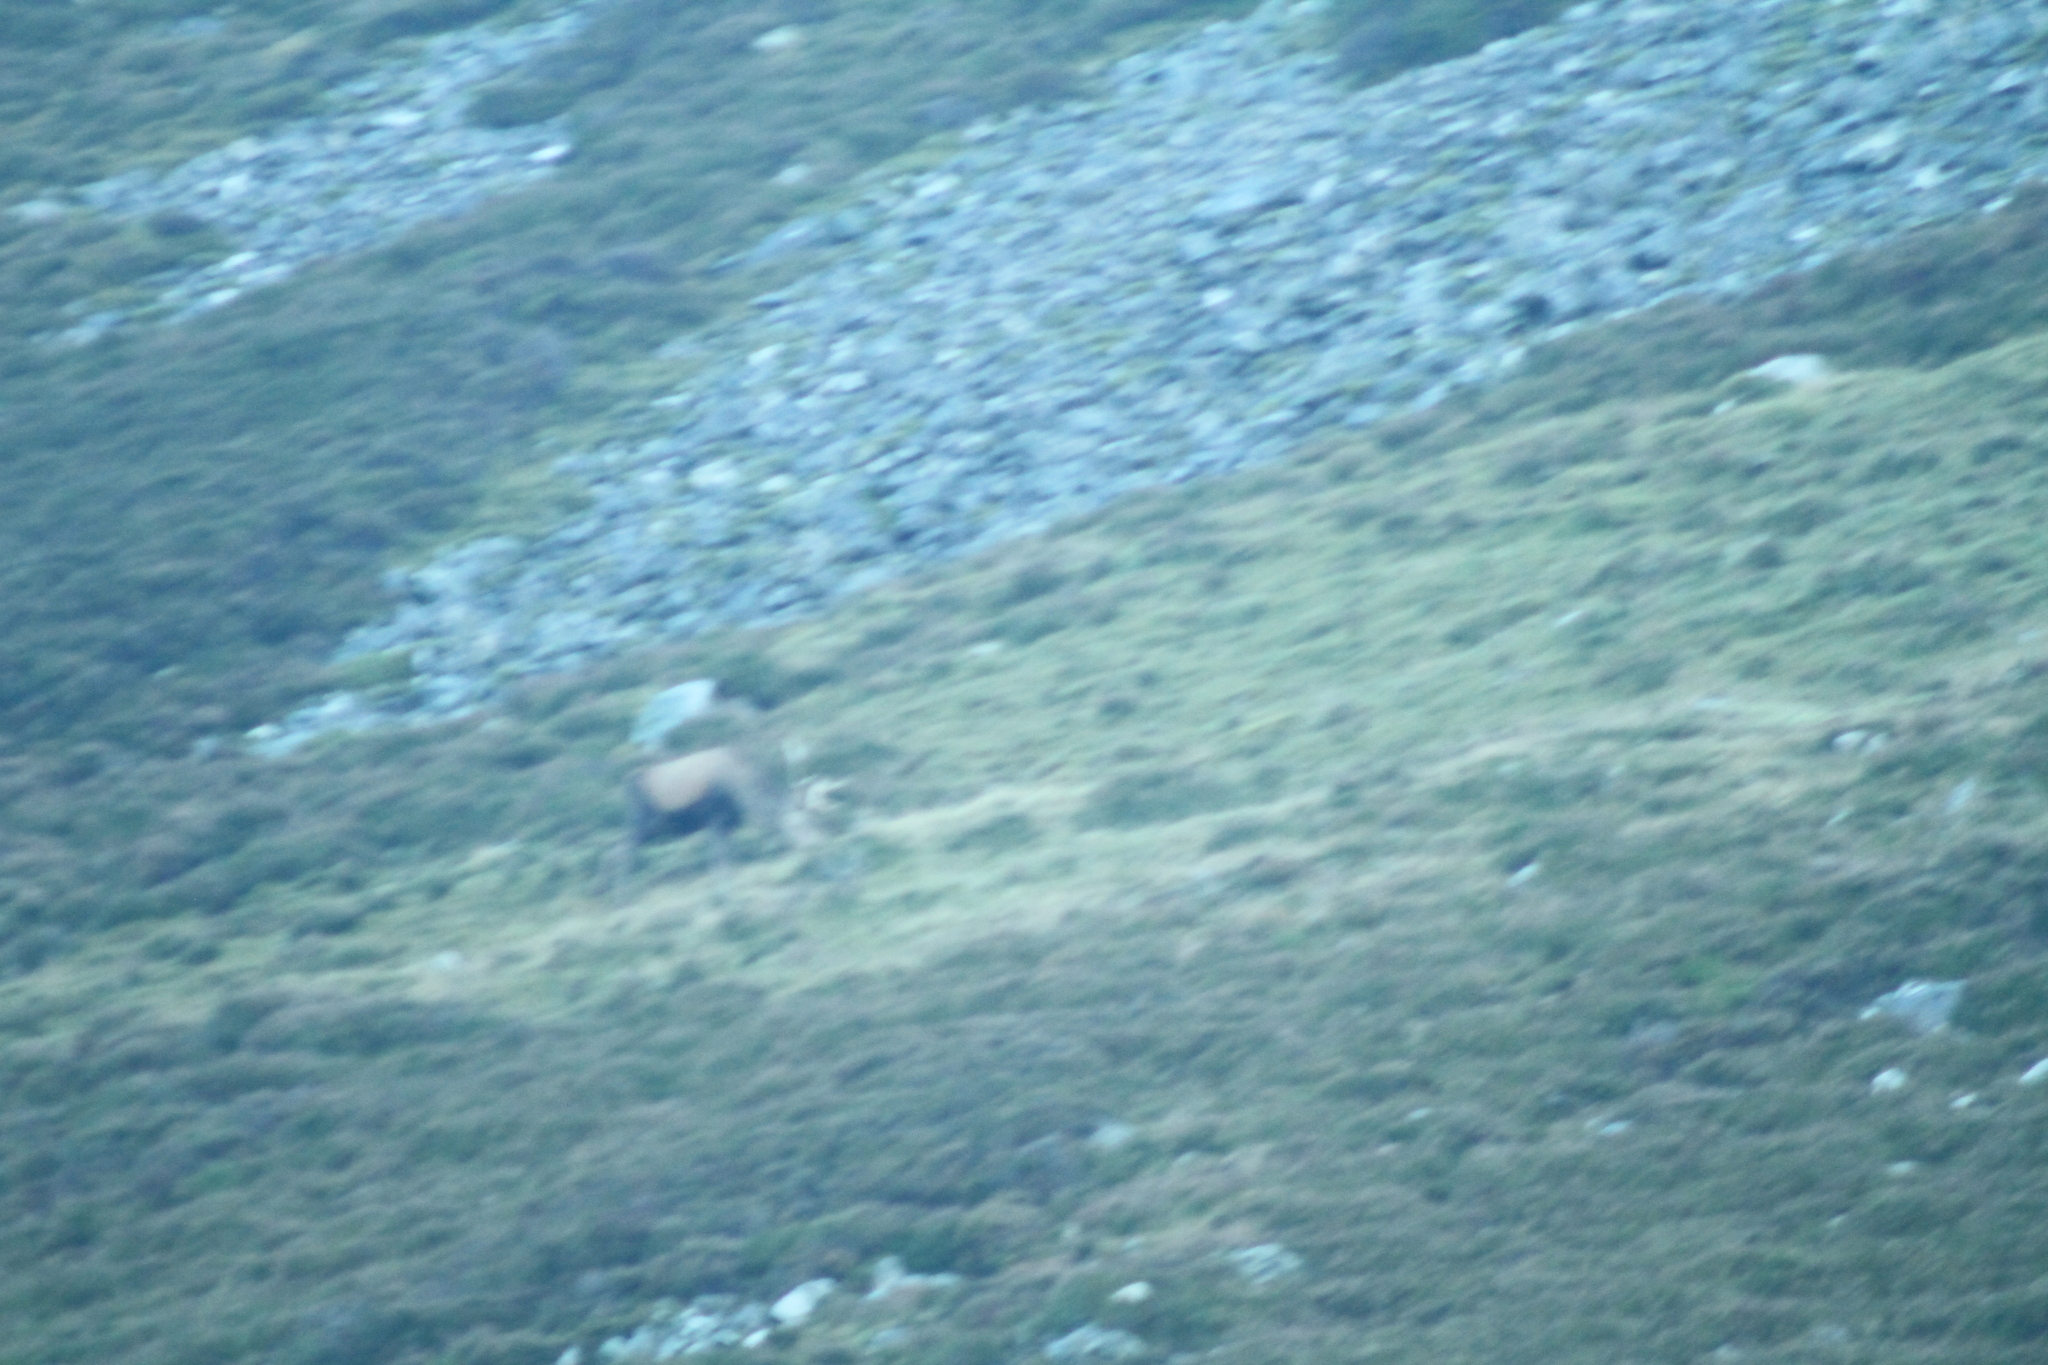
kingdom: Animalia
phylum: Chordata
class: Mammalia
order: Artiodactyla
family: Cervidae
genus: Cervus
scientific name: Cervus elaphus
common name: Red deer
